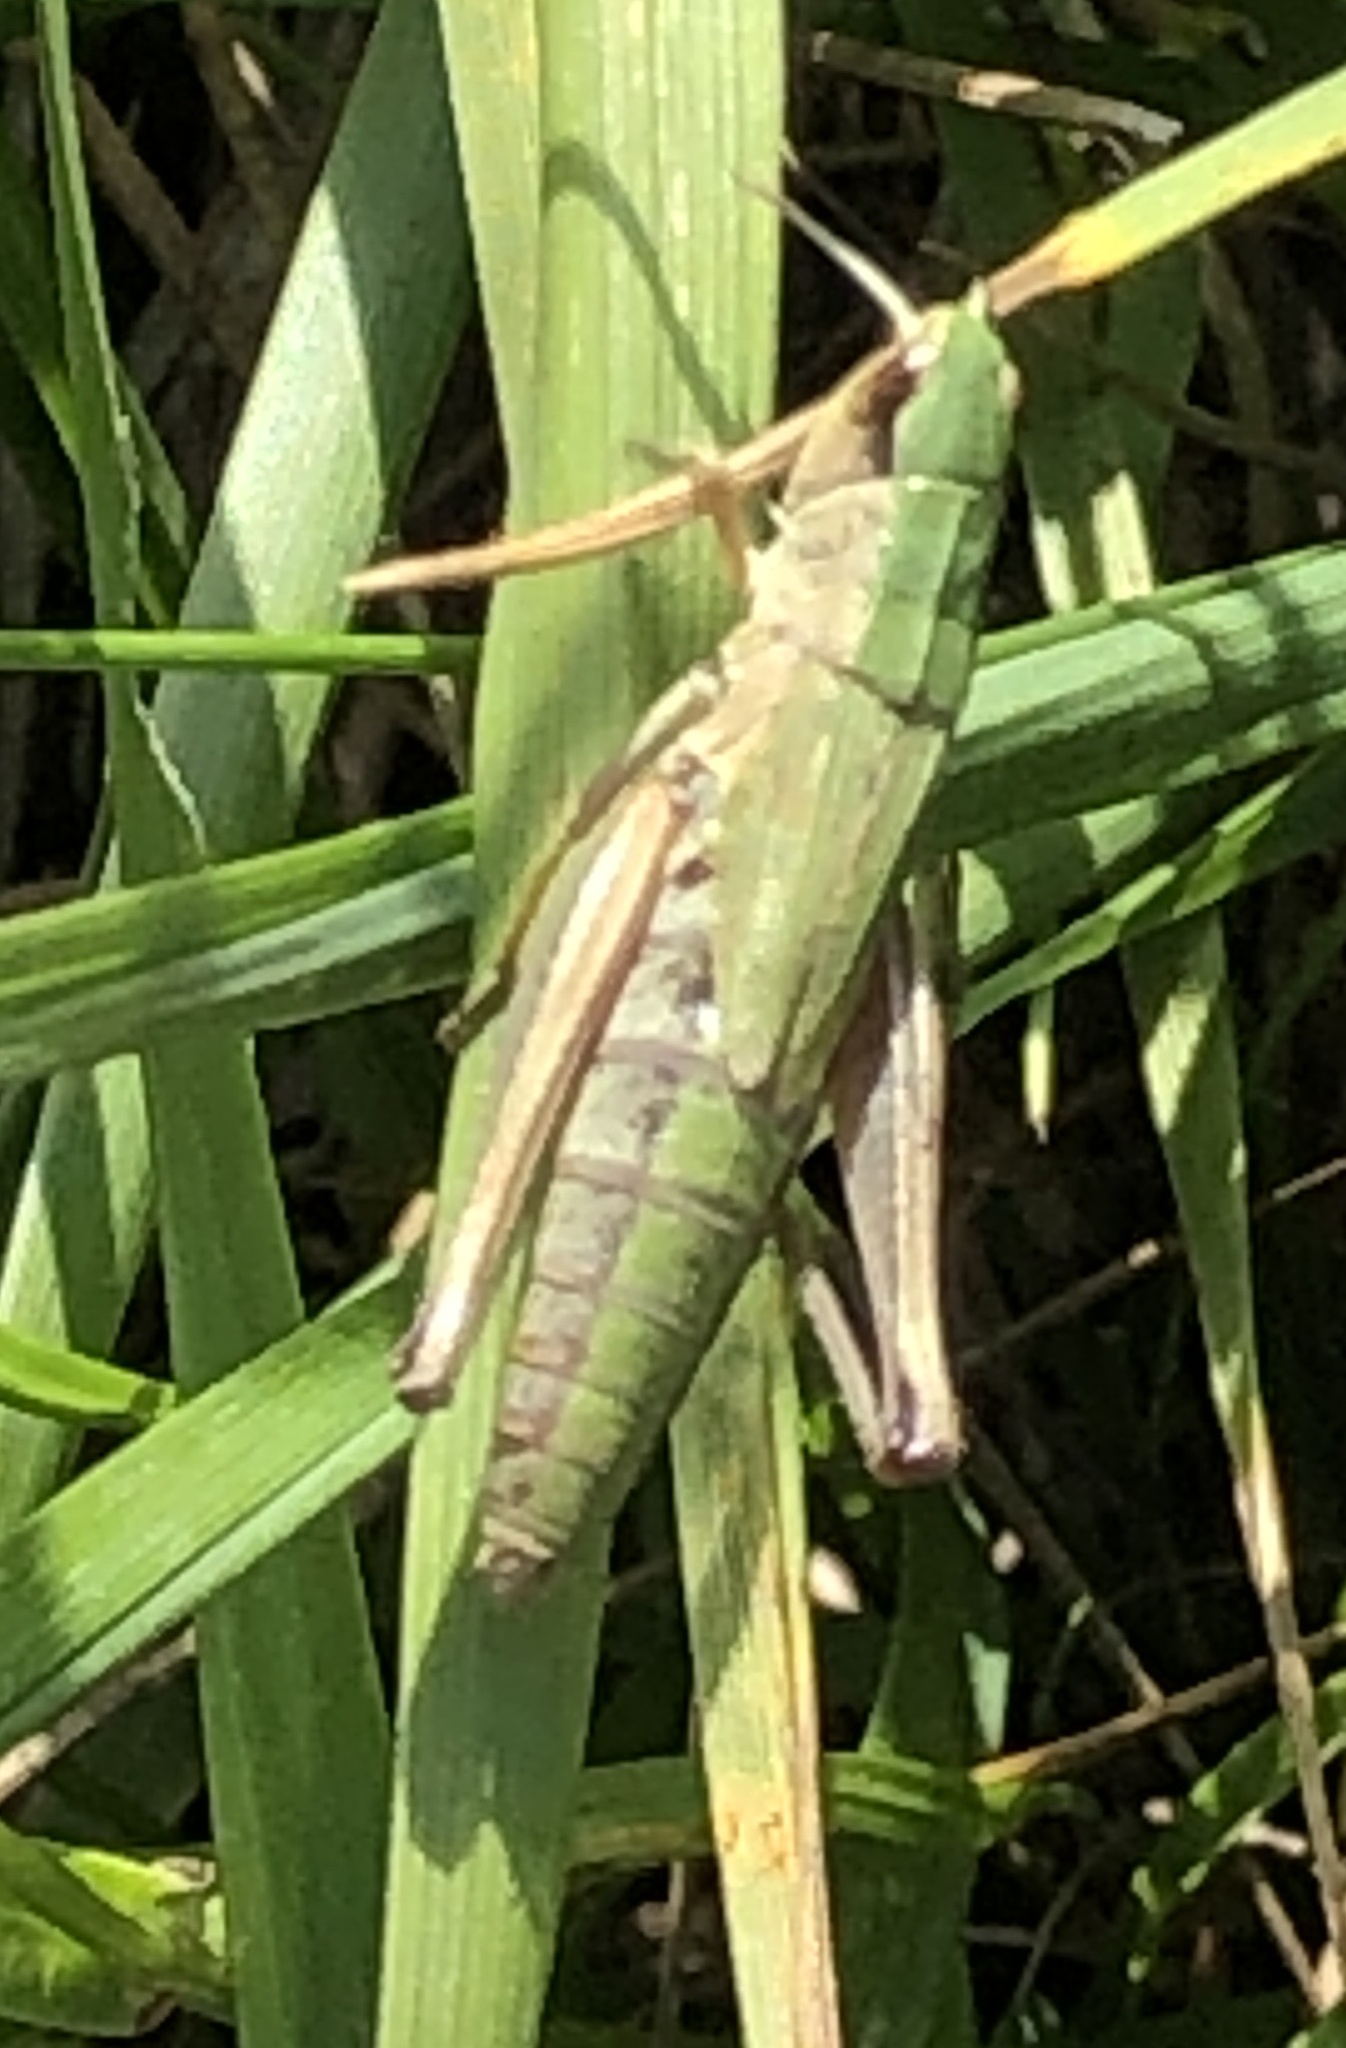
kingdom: Animalia
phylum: Arthropoda
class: Insecta
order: Orthoptera
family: Acrididae
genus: Pseudochorthippus
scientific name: Pseudochorthippus parallelus
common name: Meadow grasshopper
